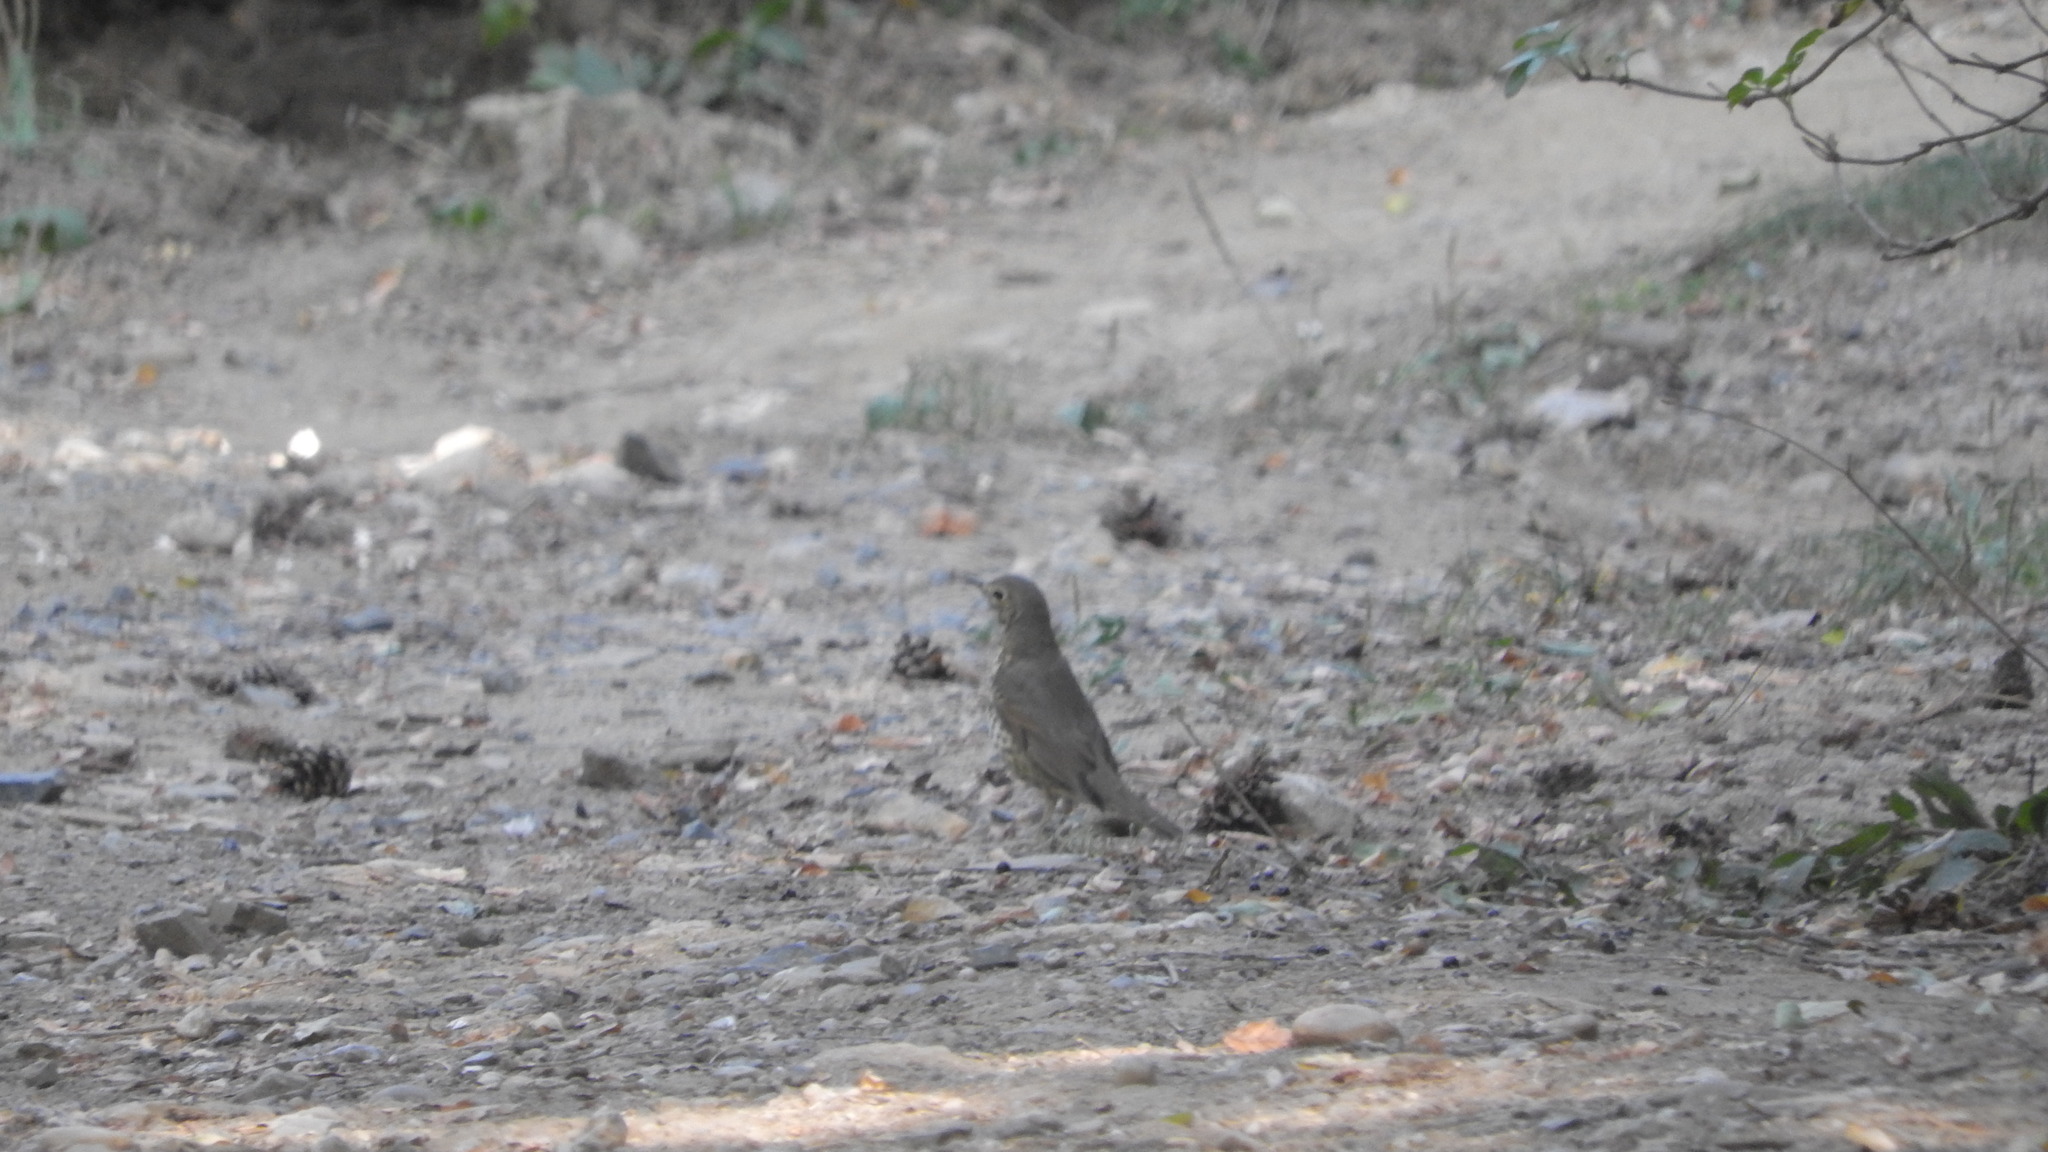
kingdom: Animalia
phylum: Chordata
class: Aves
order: Passeriformes
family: Turdidae
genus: Turdus
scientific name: Turdus philomelos
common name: Song thrush
